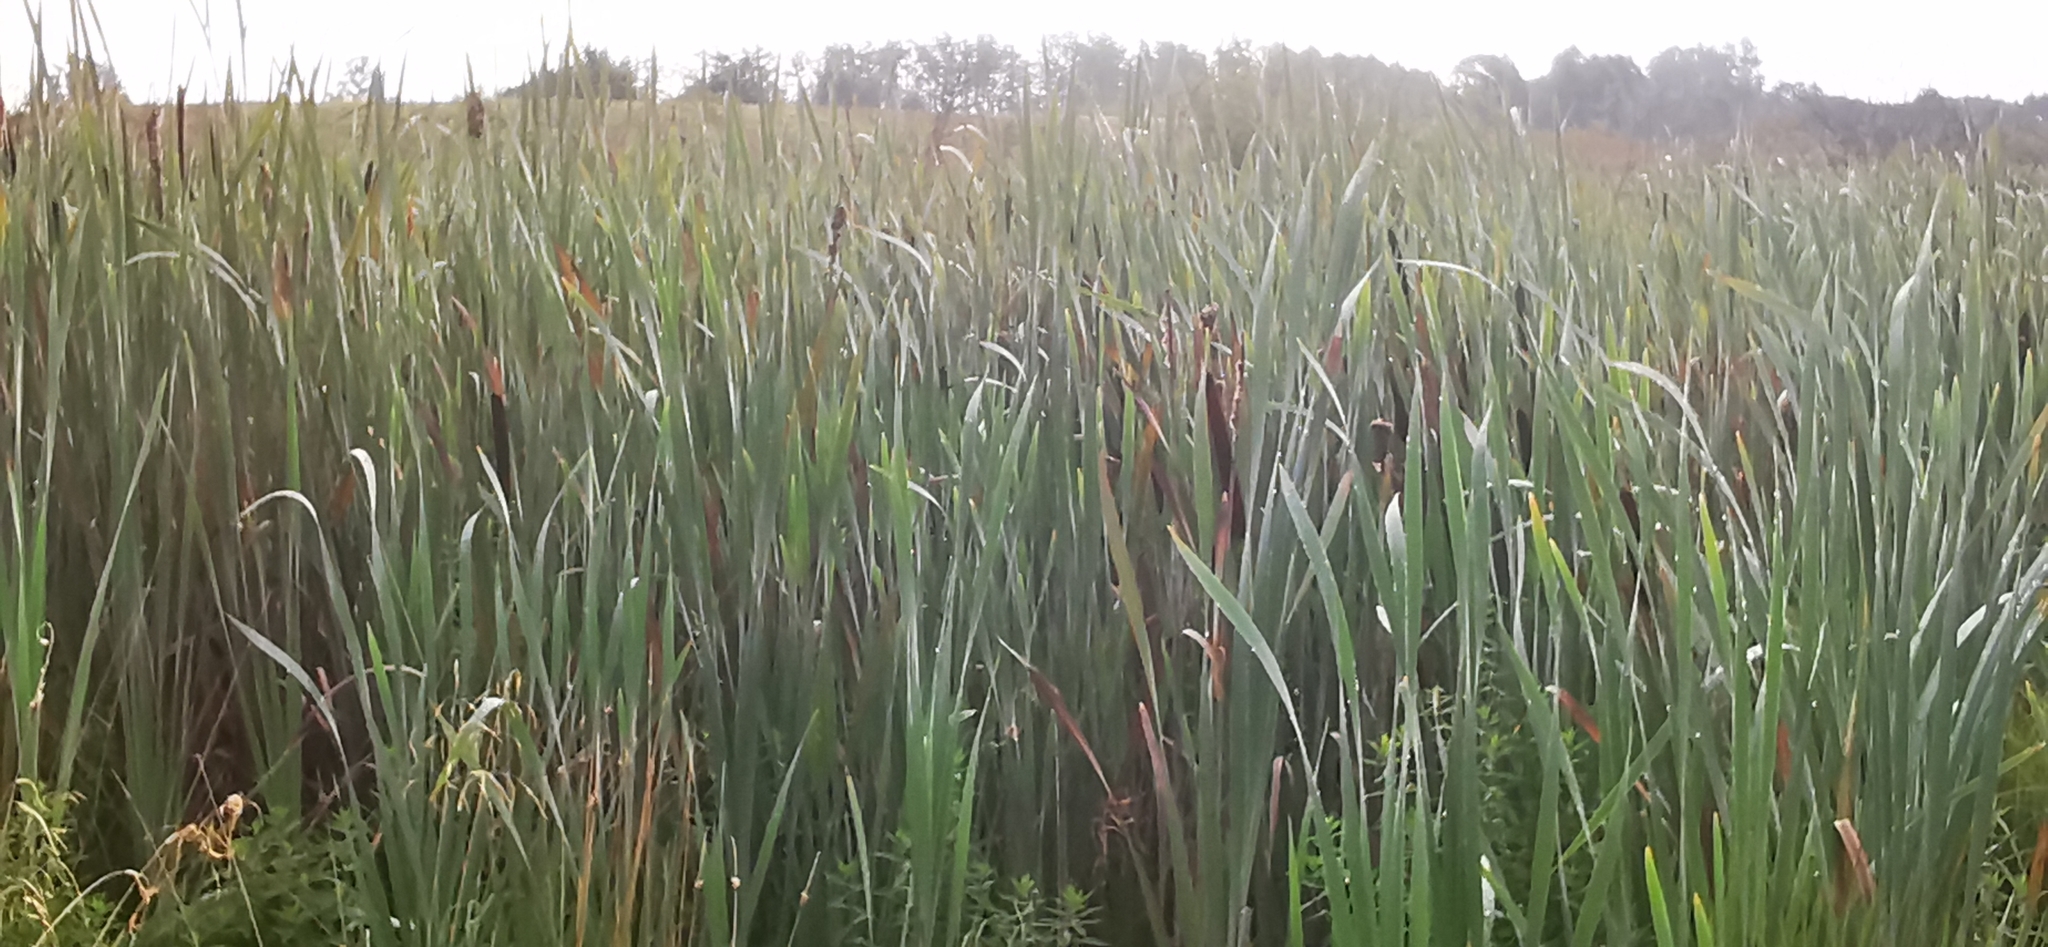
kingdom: Plantae
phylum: Tracheophyta
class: Liliopsida
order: Poales
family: Typhaceae
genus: Typha
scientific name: Typha latifolia
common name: Broadleaf cattail
